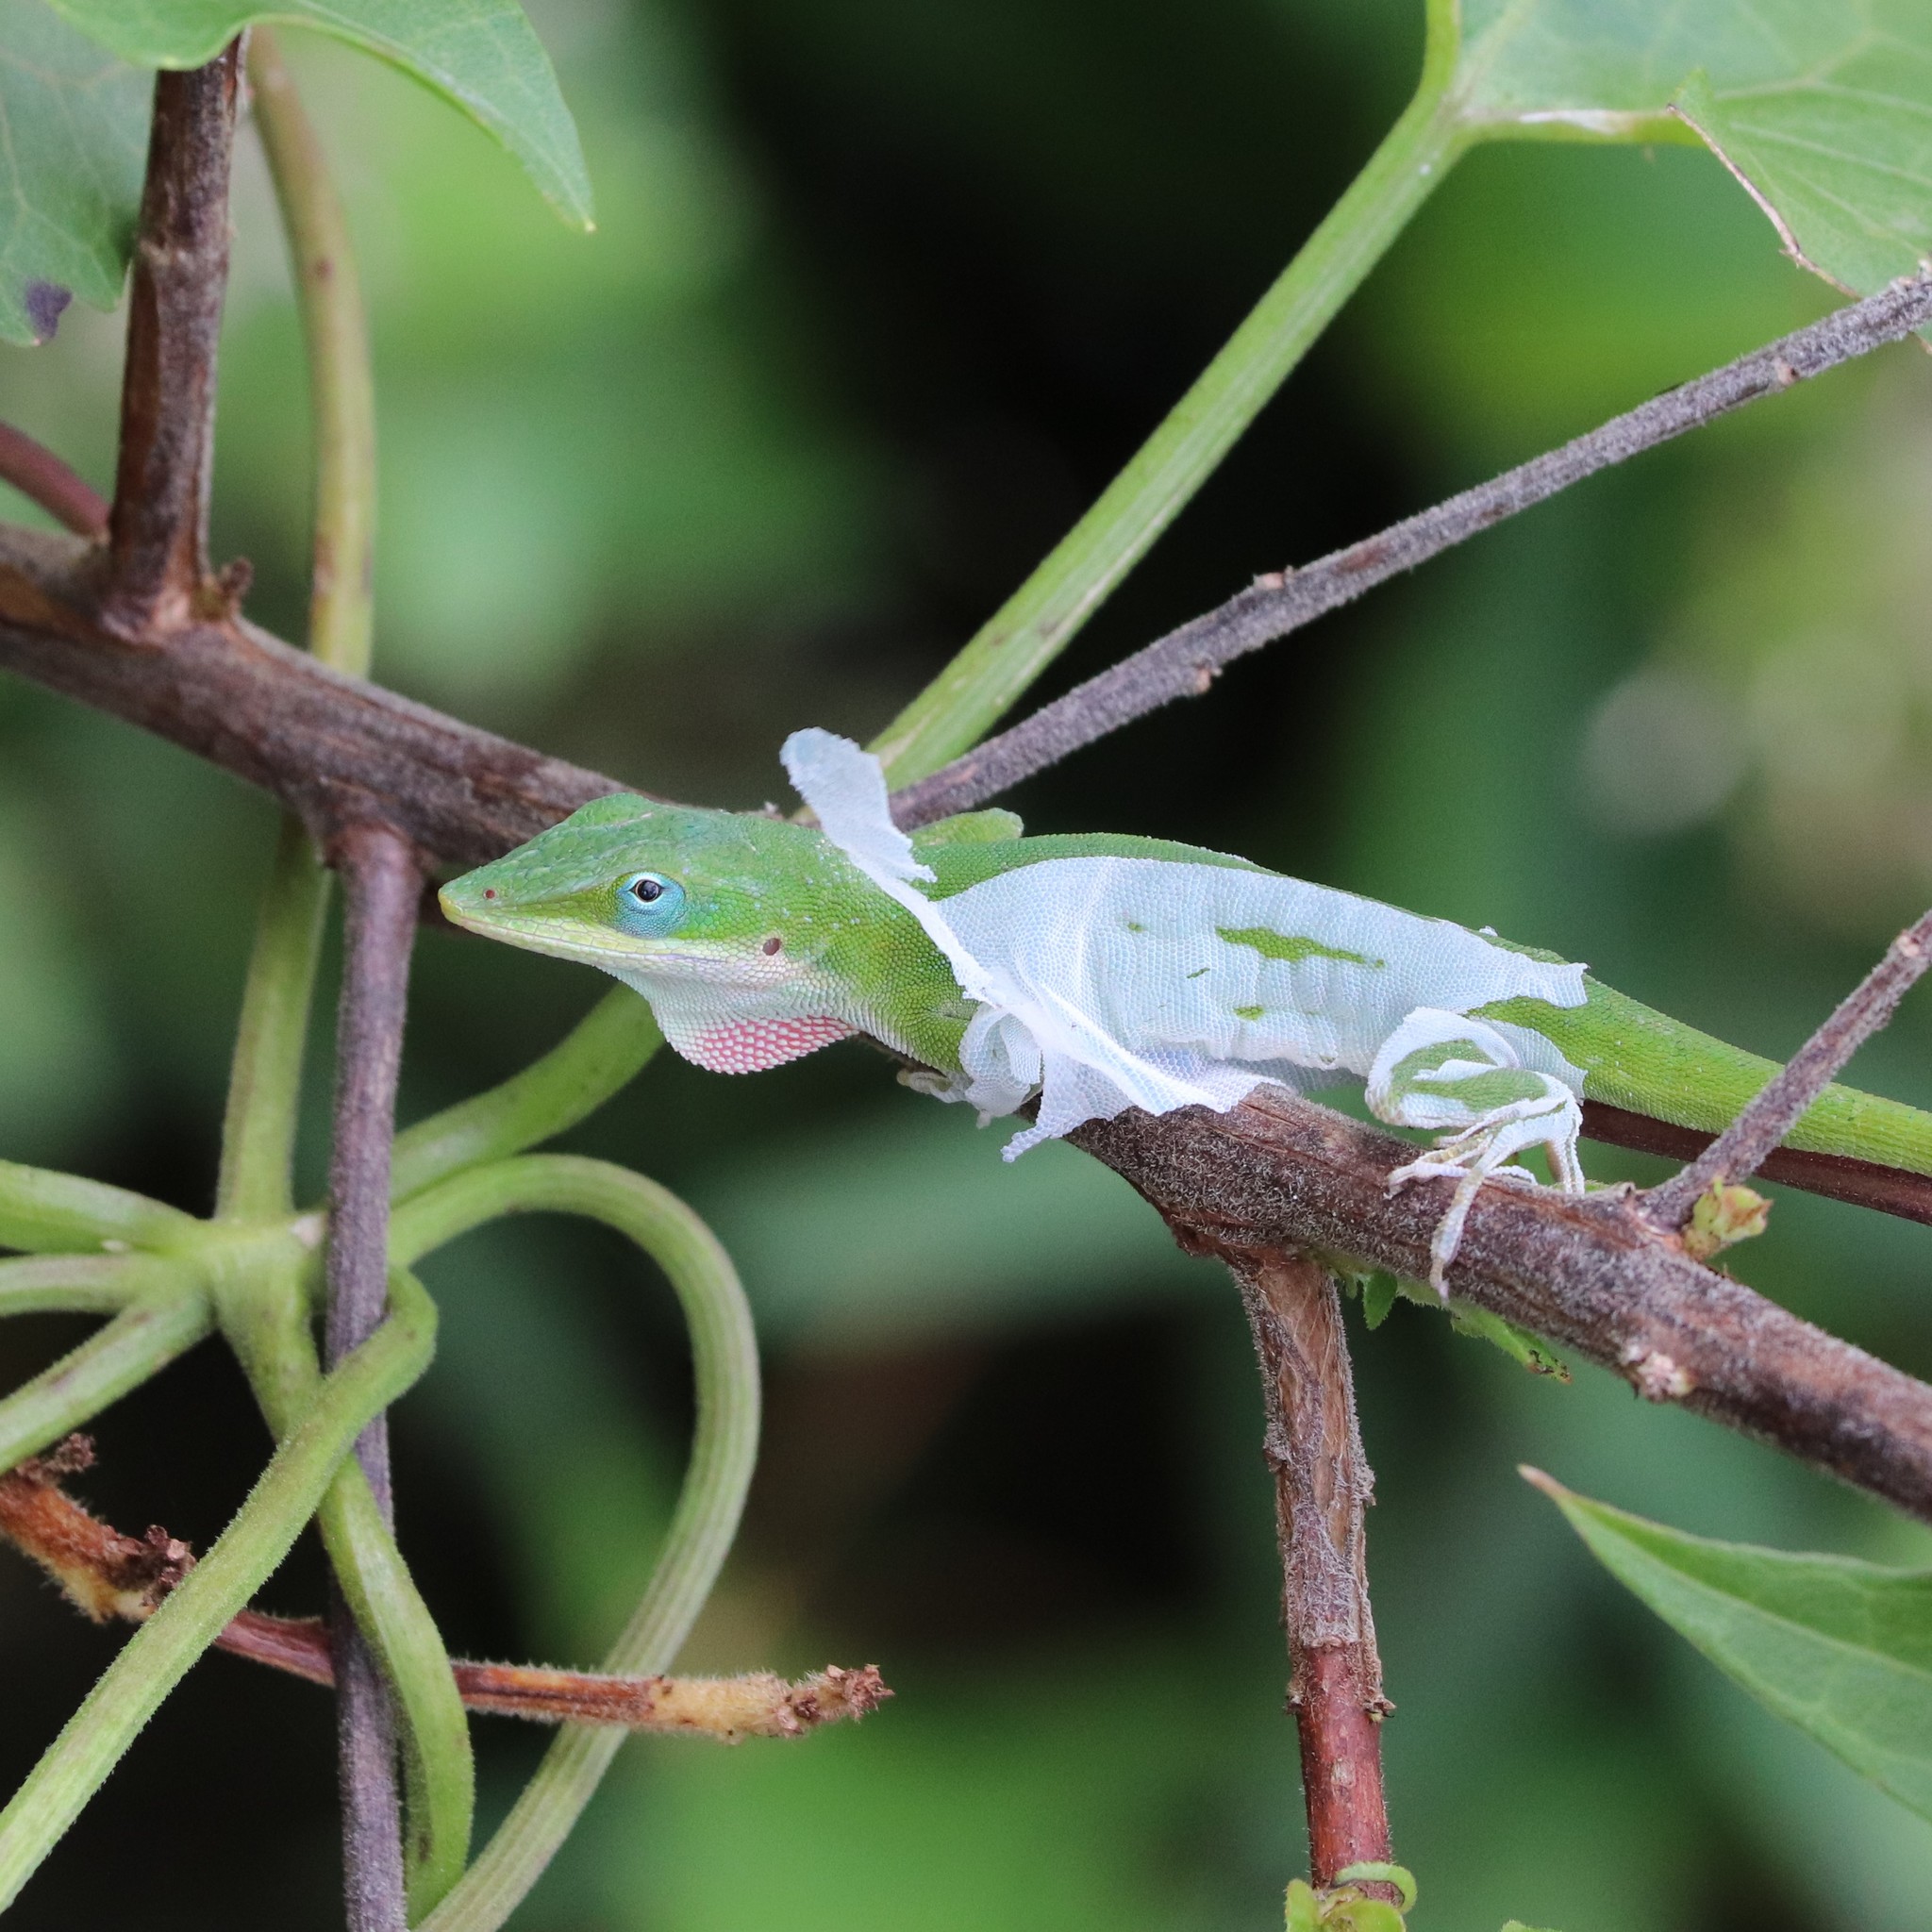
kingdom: Animalia
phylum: Chordata
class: Squamata
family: Dactyloidae
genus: Anolis
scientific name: Anolis carolinensis
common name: Green anole
